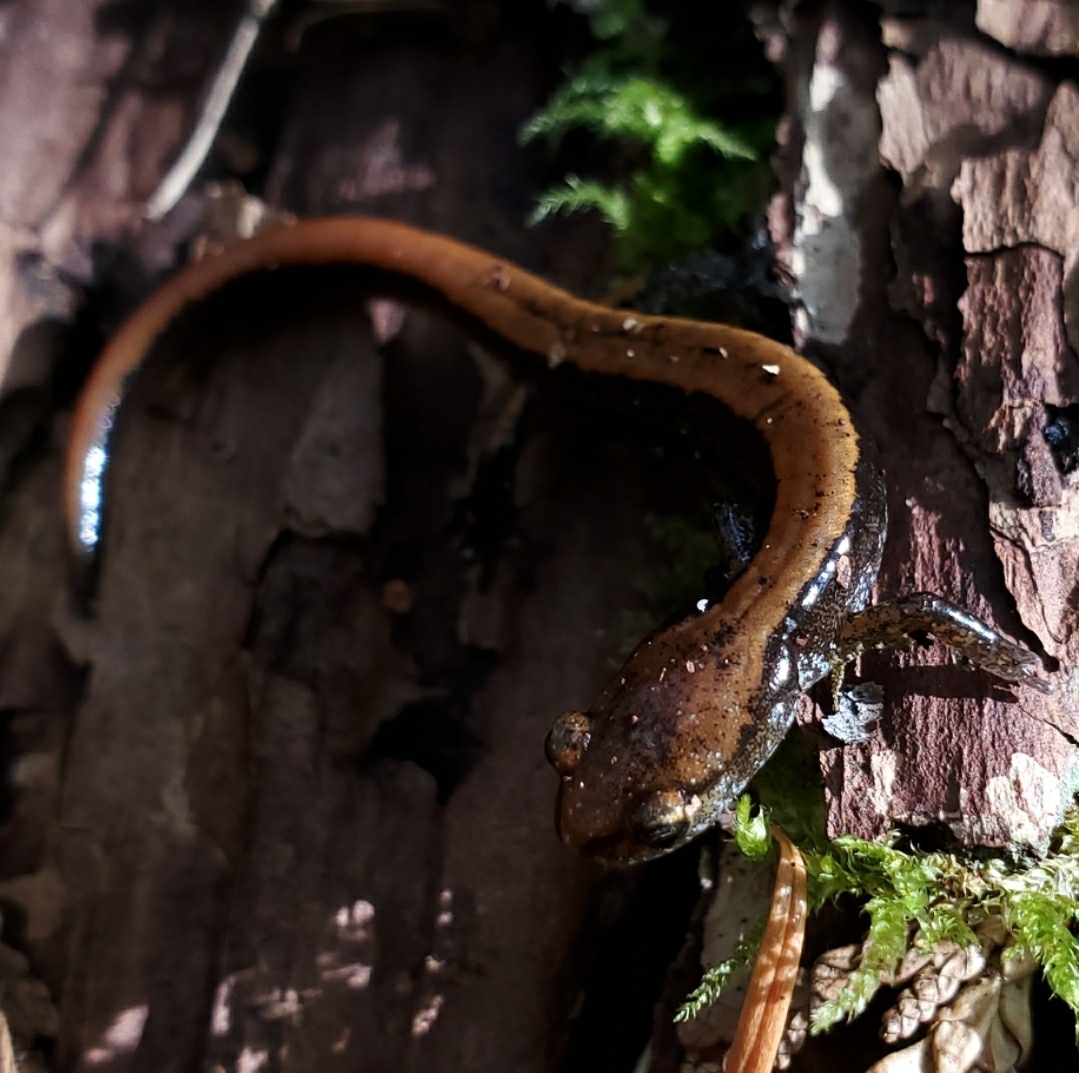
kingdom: Animalia
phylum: Chordata
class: Amphibia
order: Caudata
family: Plethodontidae
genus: Plethodon
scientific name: Plethodon vehiculum
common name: Western red-backed salamander
